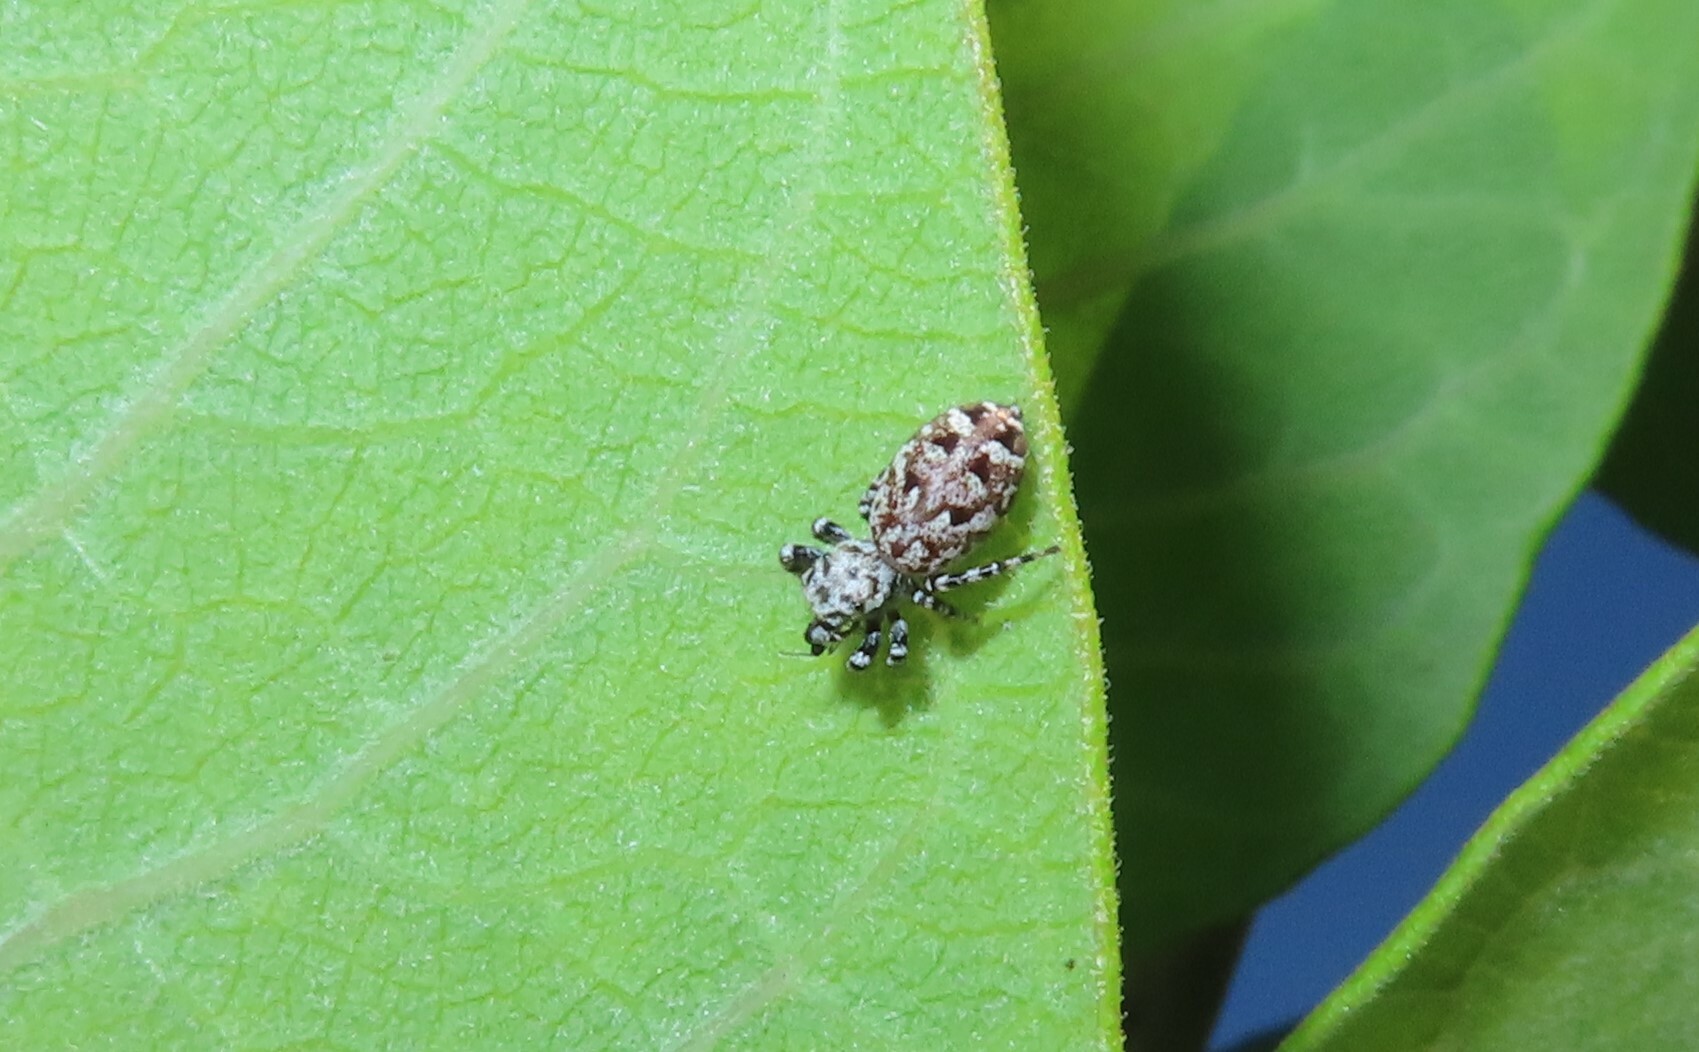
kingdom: Animalia
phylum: Arthropoda
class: Arachnida
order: Araneae
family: Salticidae
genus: Pelegrina
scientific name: Pelegrina galathea
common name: Jumping spiders
